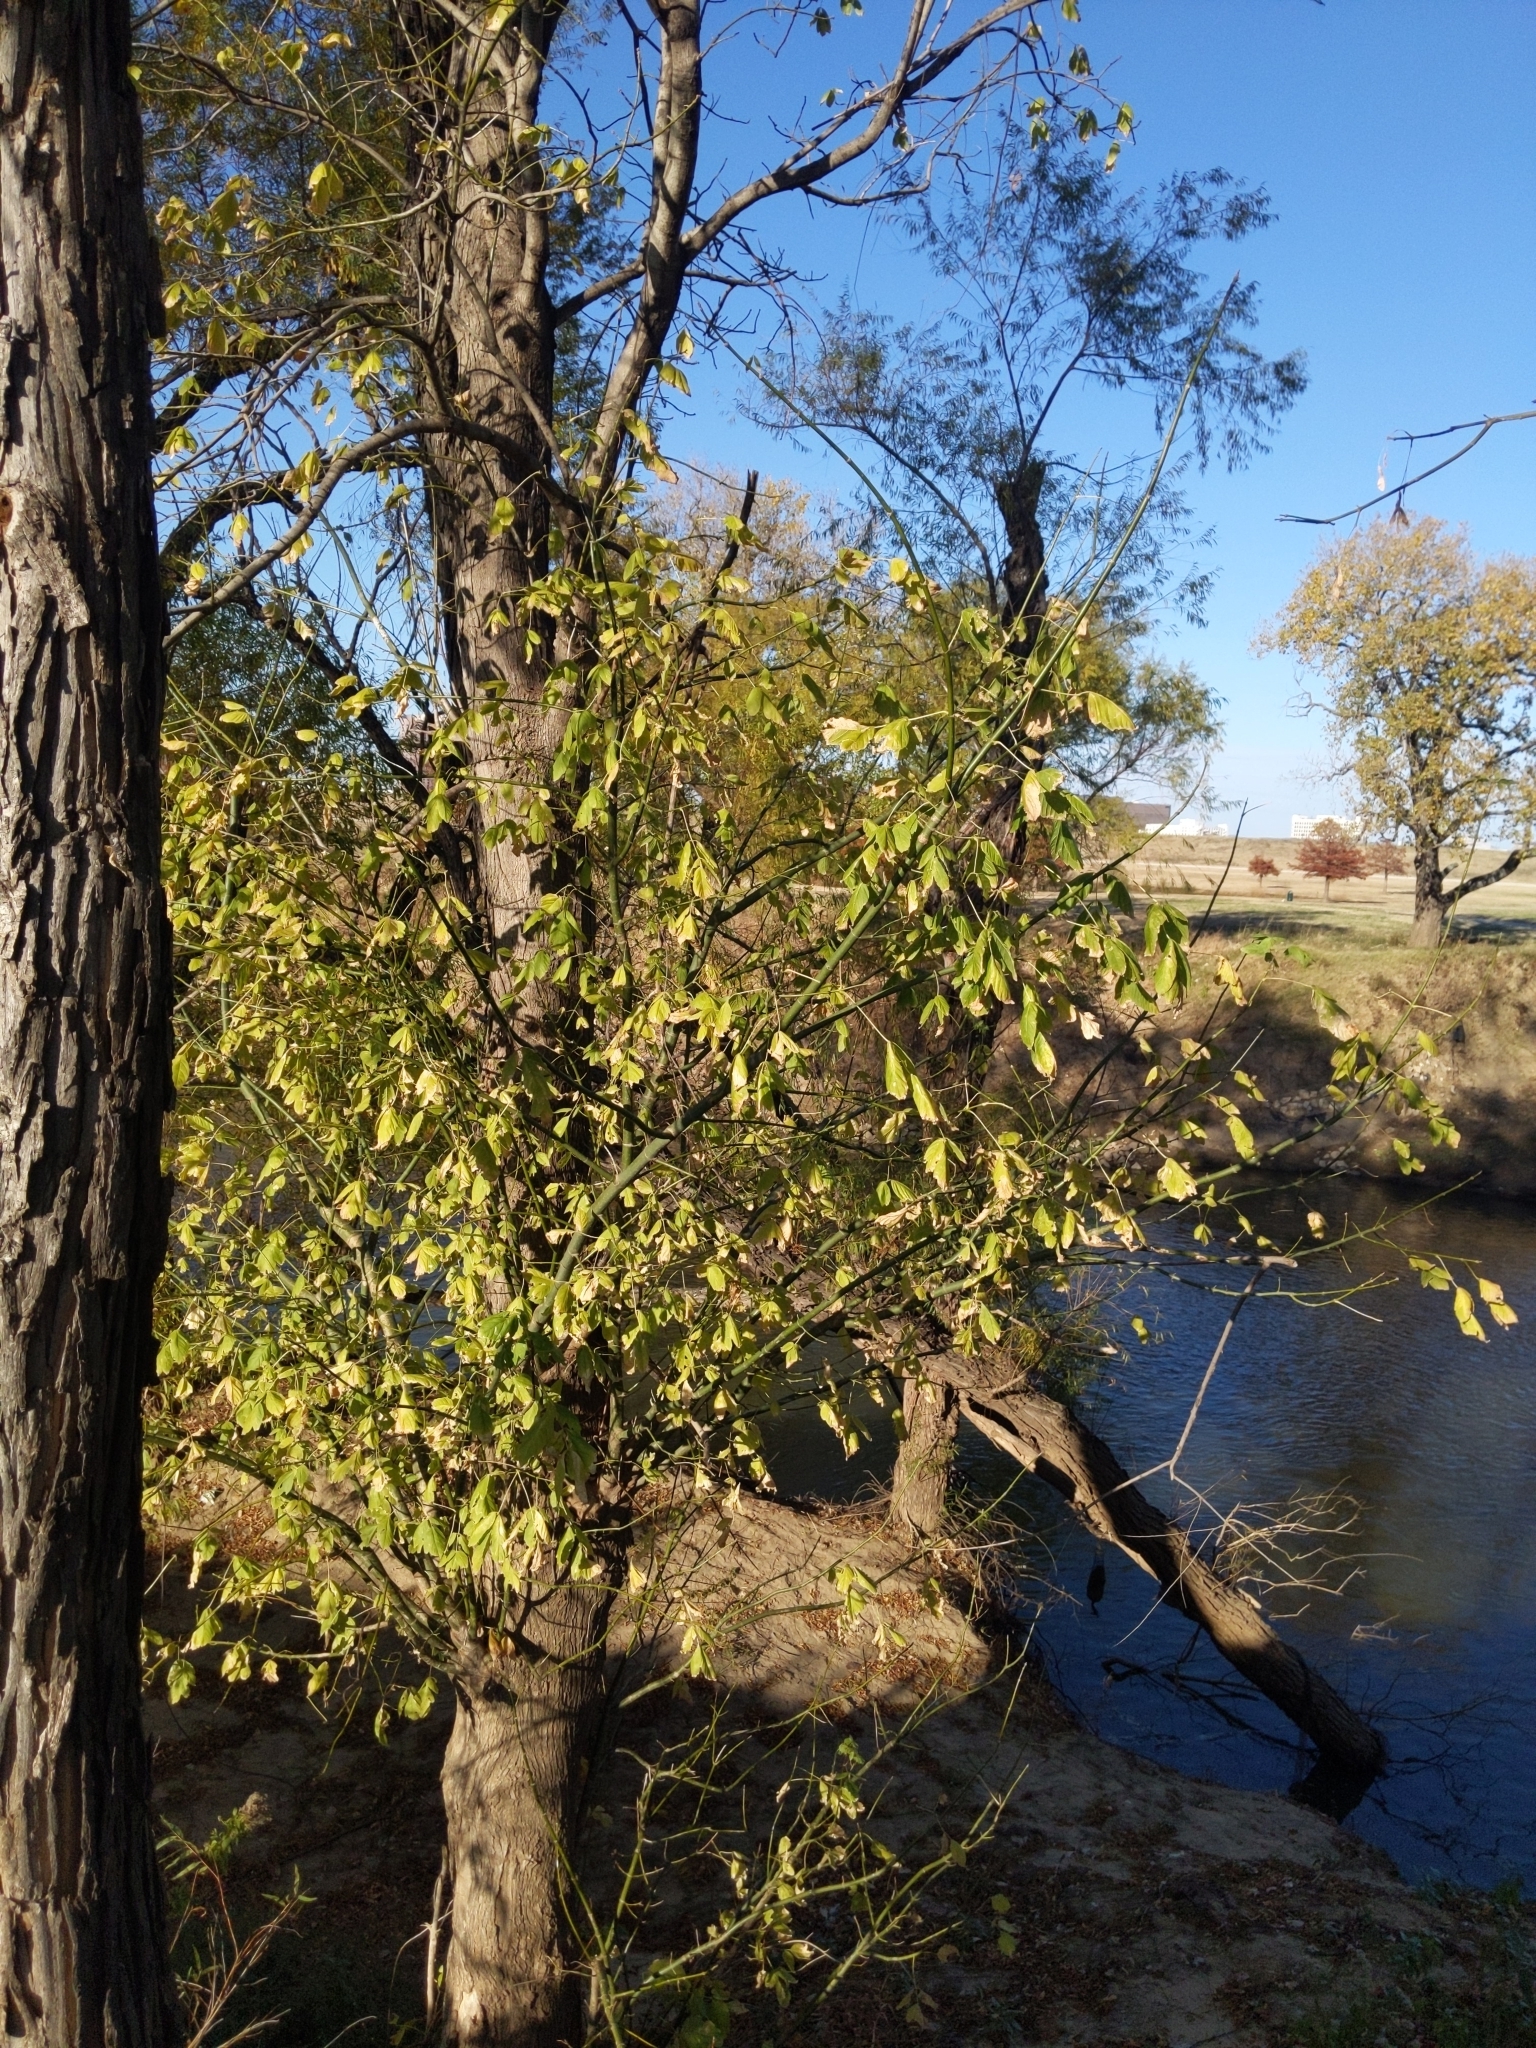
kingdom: Plantae
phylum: Tracheophyta
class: Magnoliopsida
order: Sapindales
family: Sapindaceae
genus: Acer
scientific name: Acer negundo
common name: Ashleaf maple
